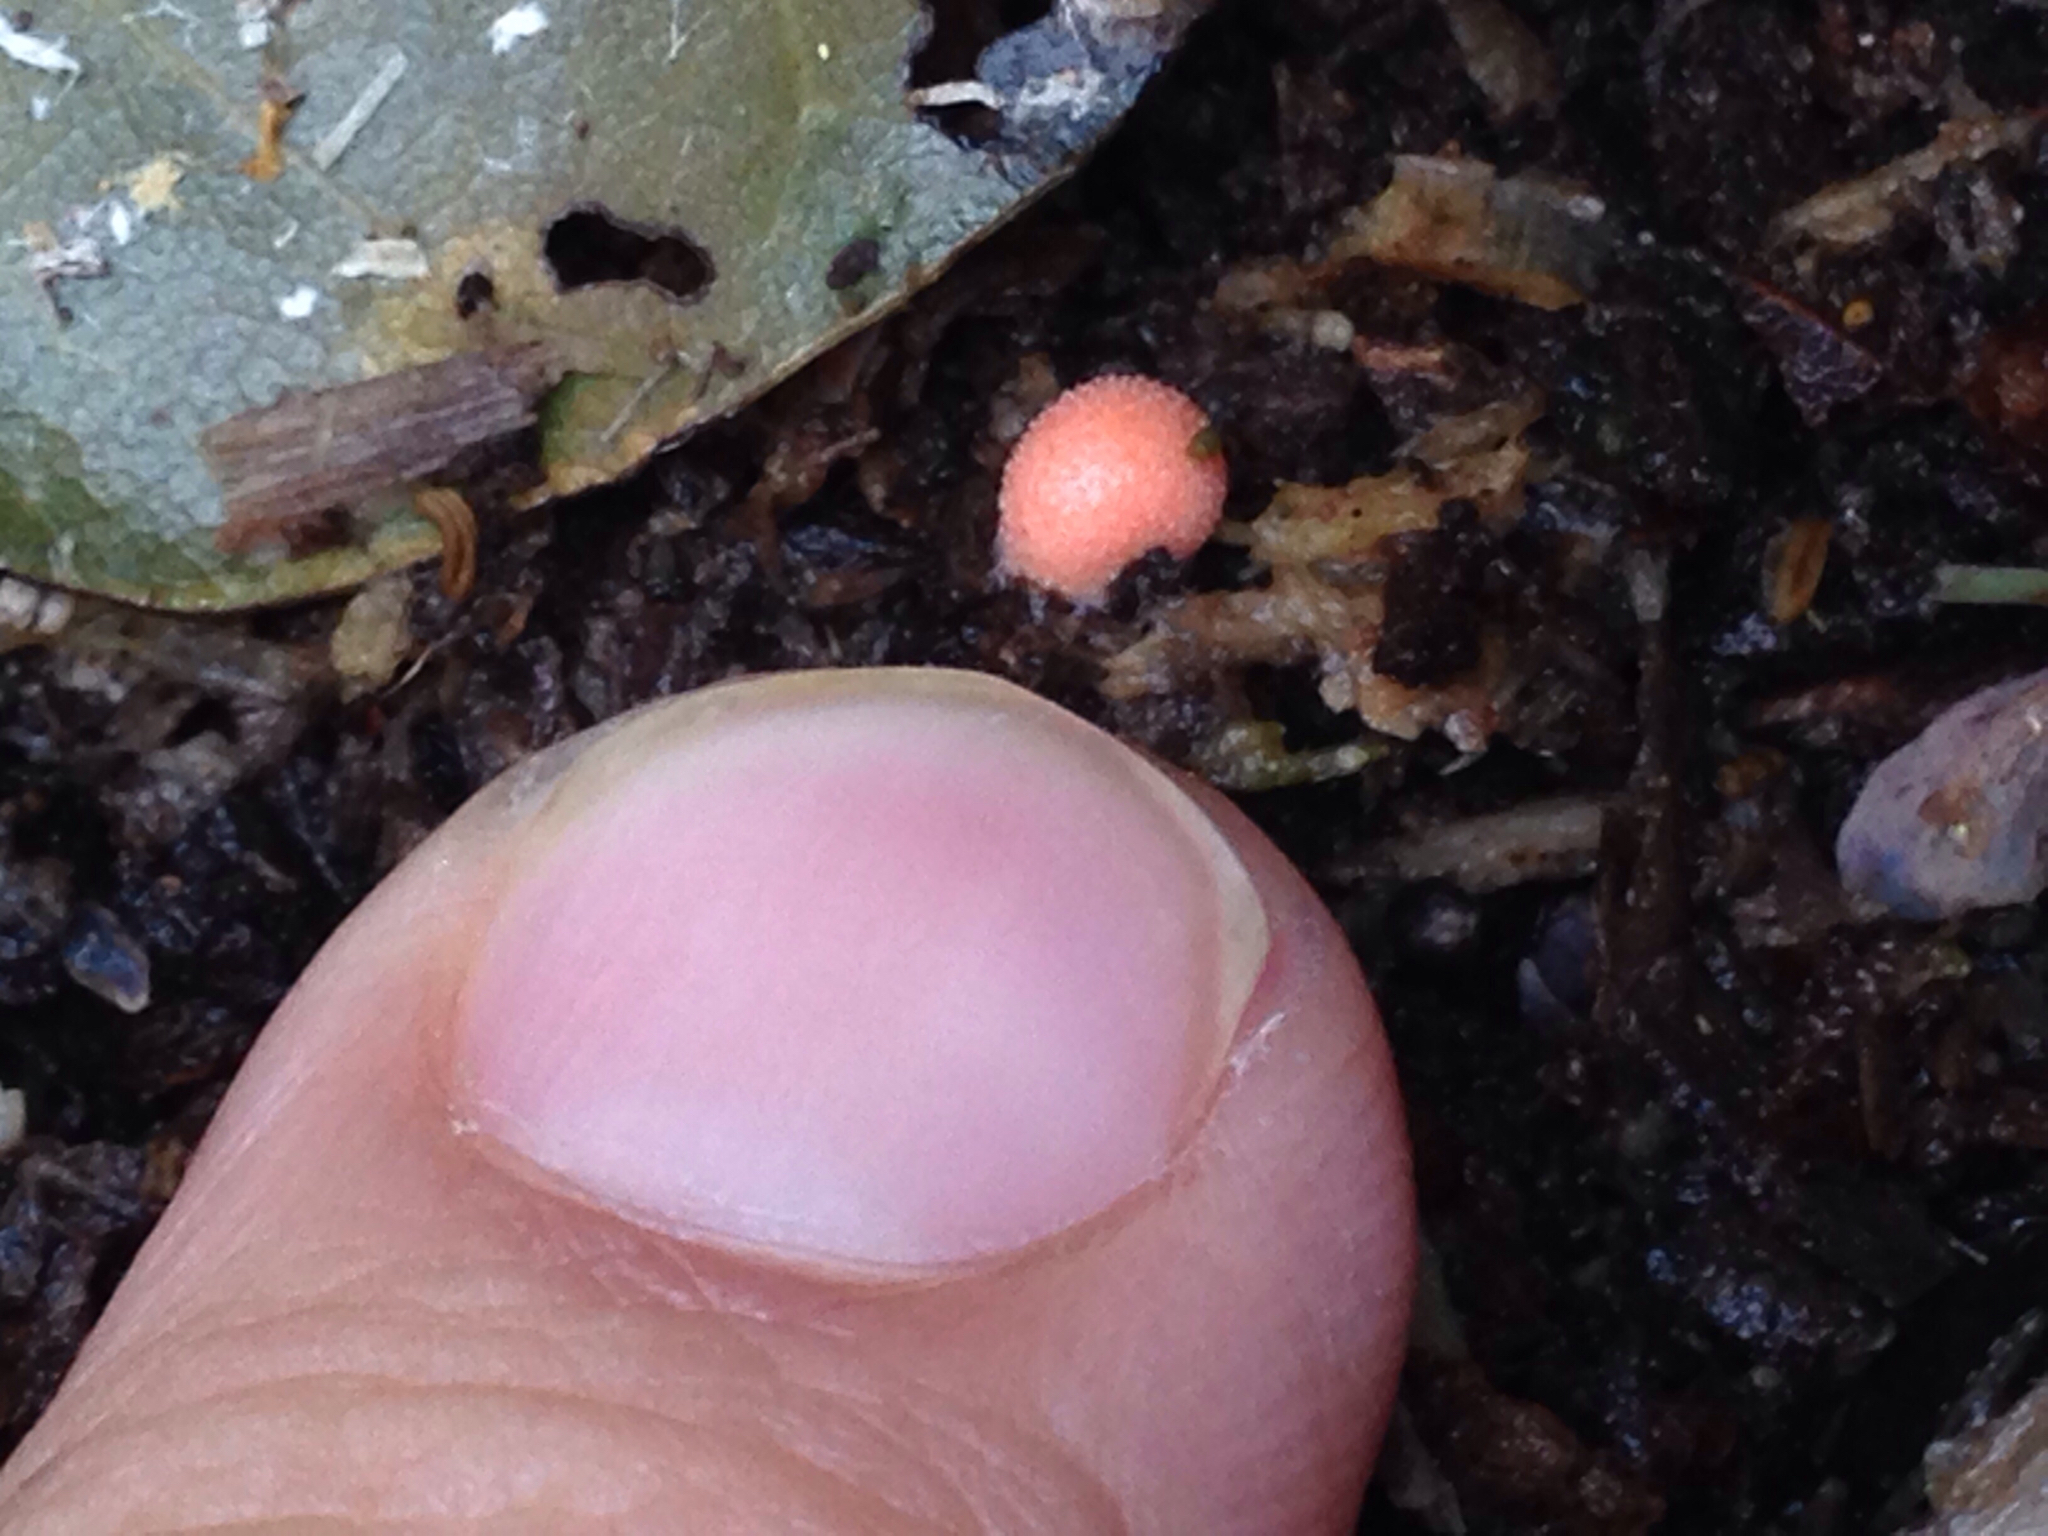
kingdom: Protozoa
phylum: Mycetozoa
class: Myxomycetes
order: Cribrariales
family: Tubiferaceae
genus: Lycogala
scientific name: Lycogala epidendrum
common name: Wolf's milk
